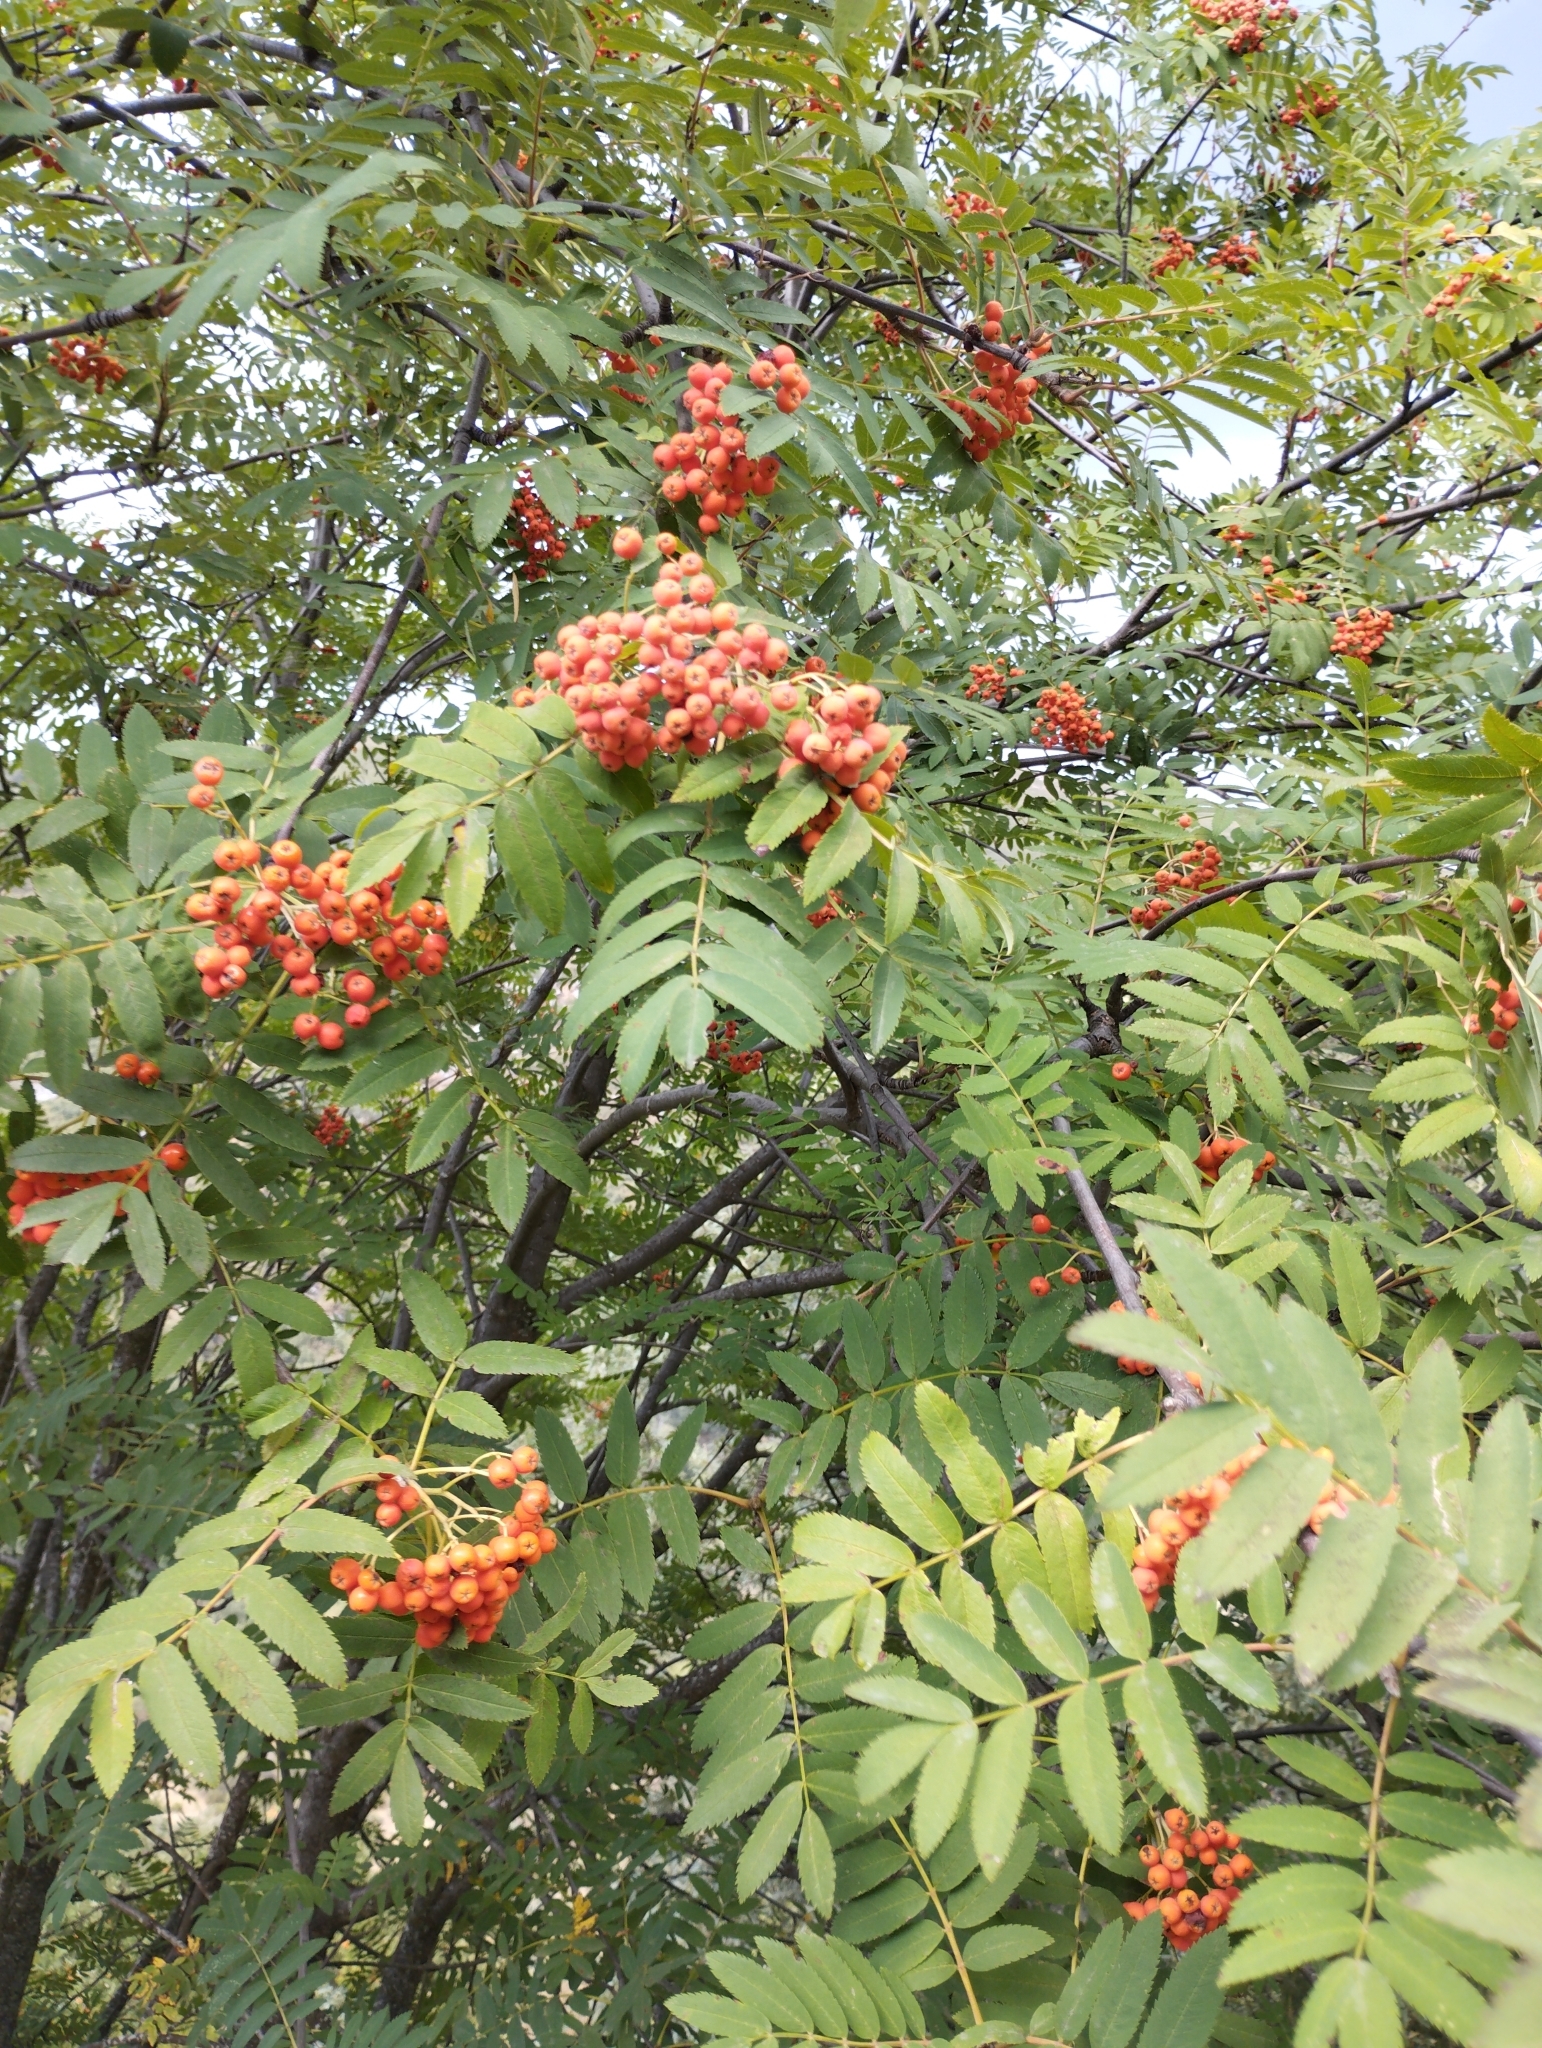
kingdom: Plantae
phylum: Tracheophyta
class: Magnoliopsida
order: Rosales
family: Rosaceae
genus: Sorbus
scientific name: Sorbus aucuparia
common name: Rowan
